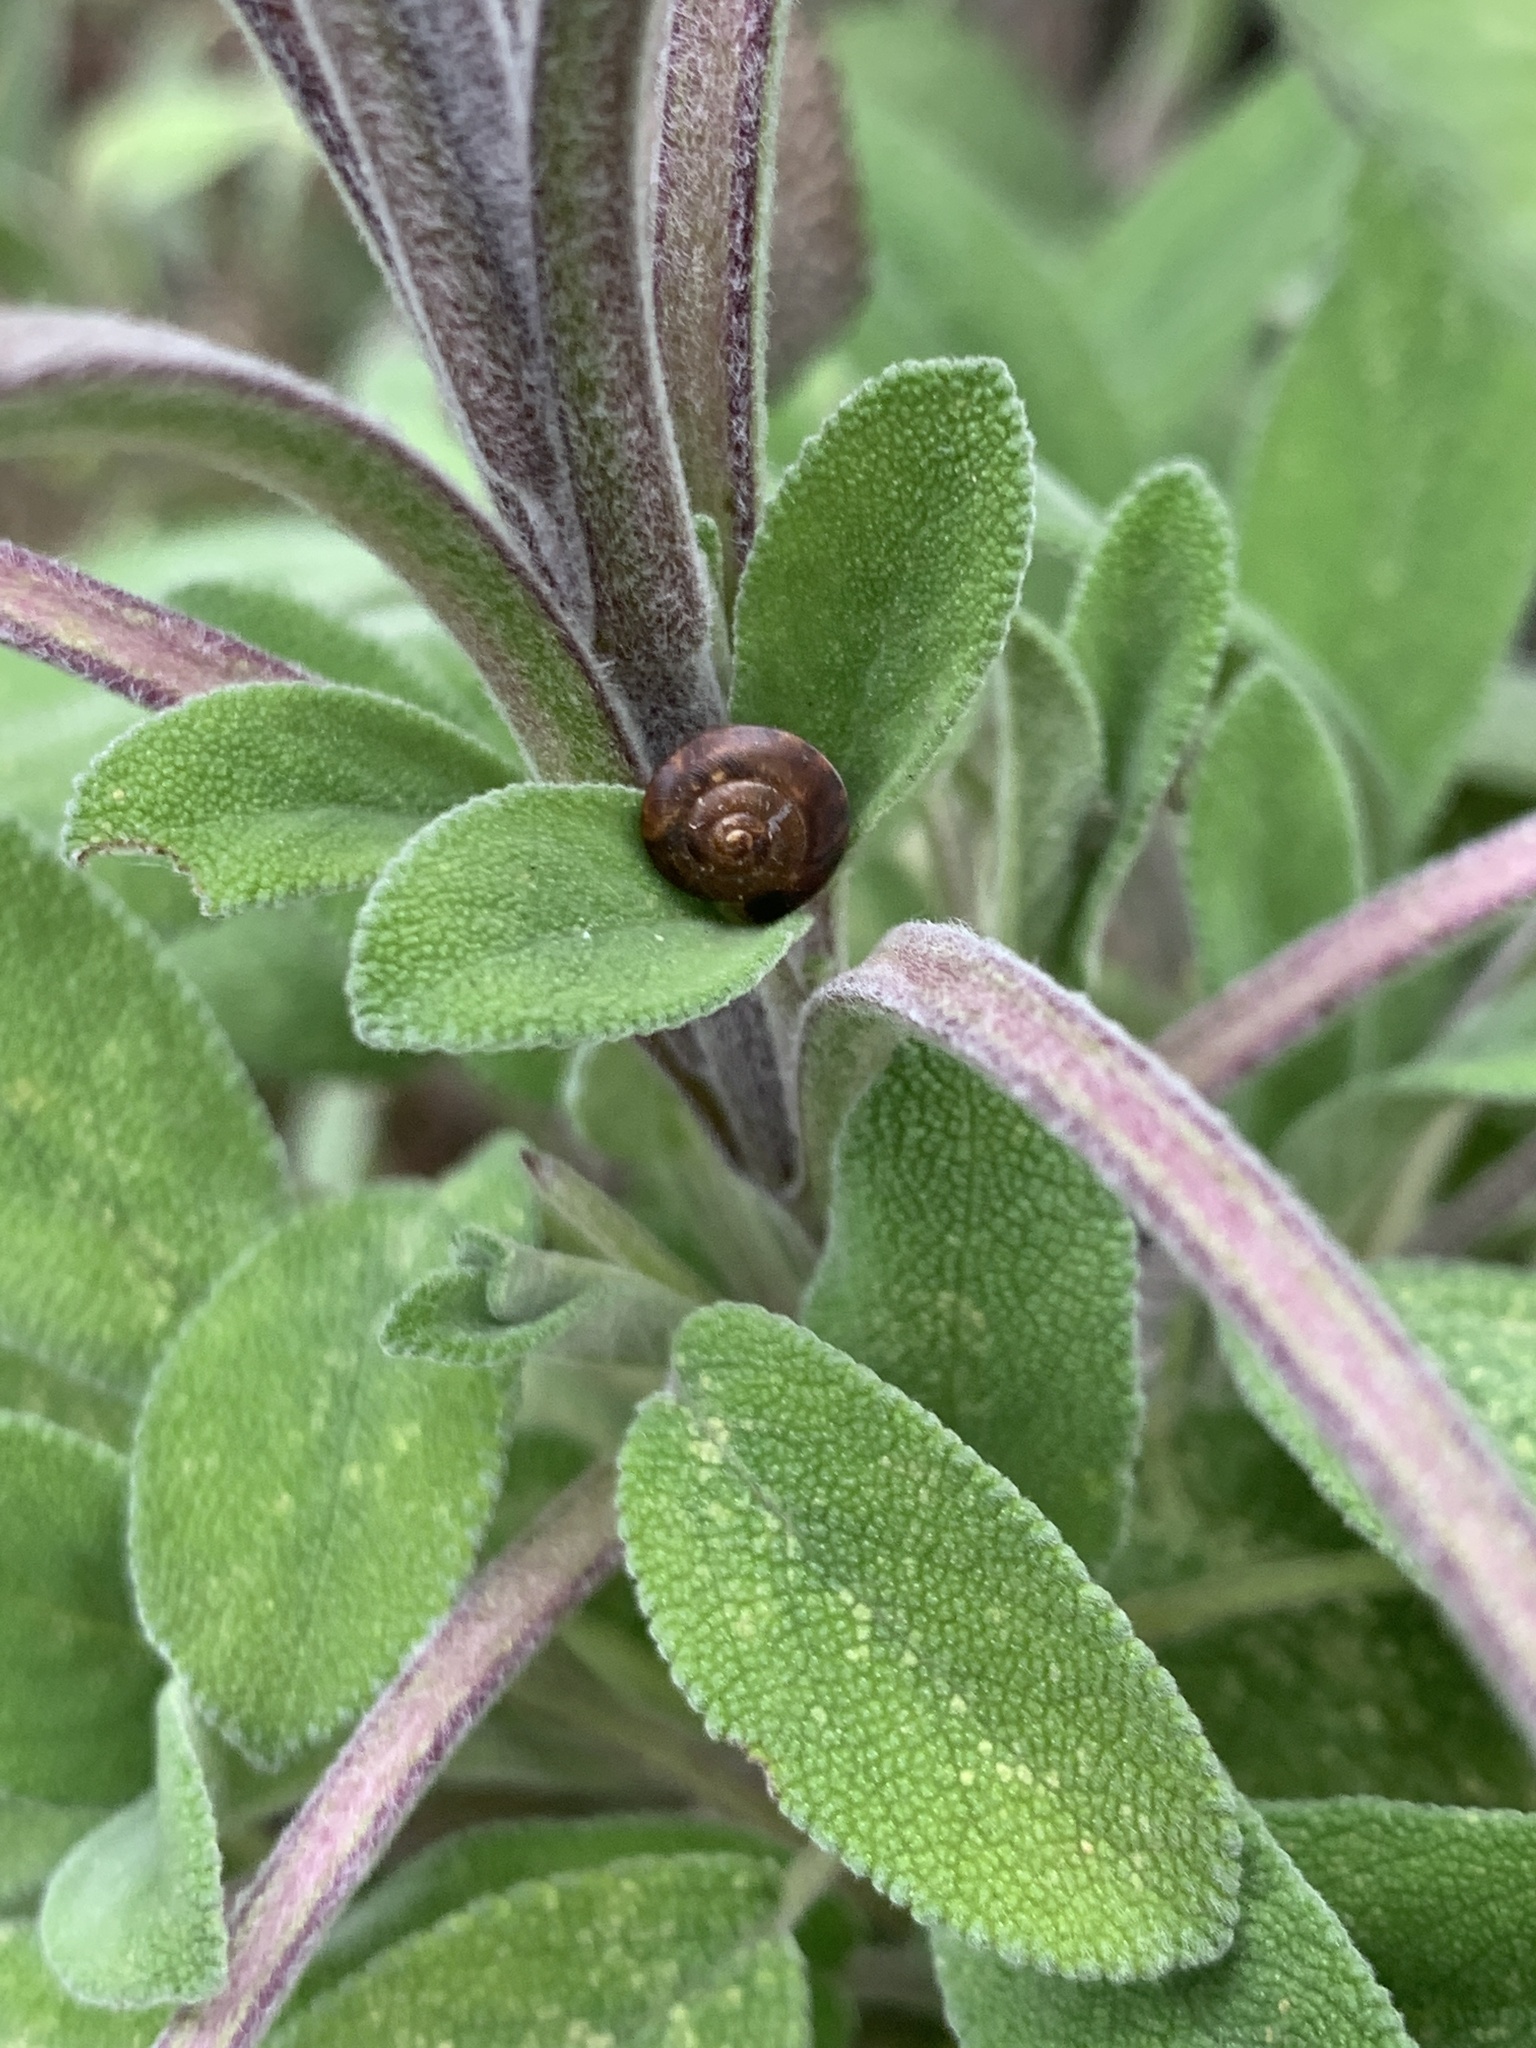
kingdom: Animalia
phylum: Mollusca
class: Gastropoda
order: Stylommatophora
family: Hygromiidae
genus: Hygromia
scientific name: Hygromia cinctella
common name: Girdled snail
